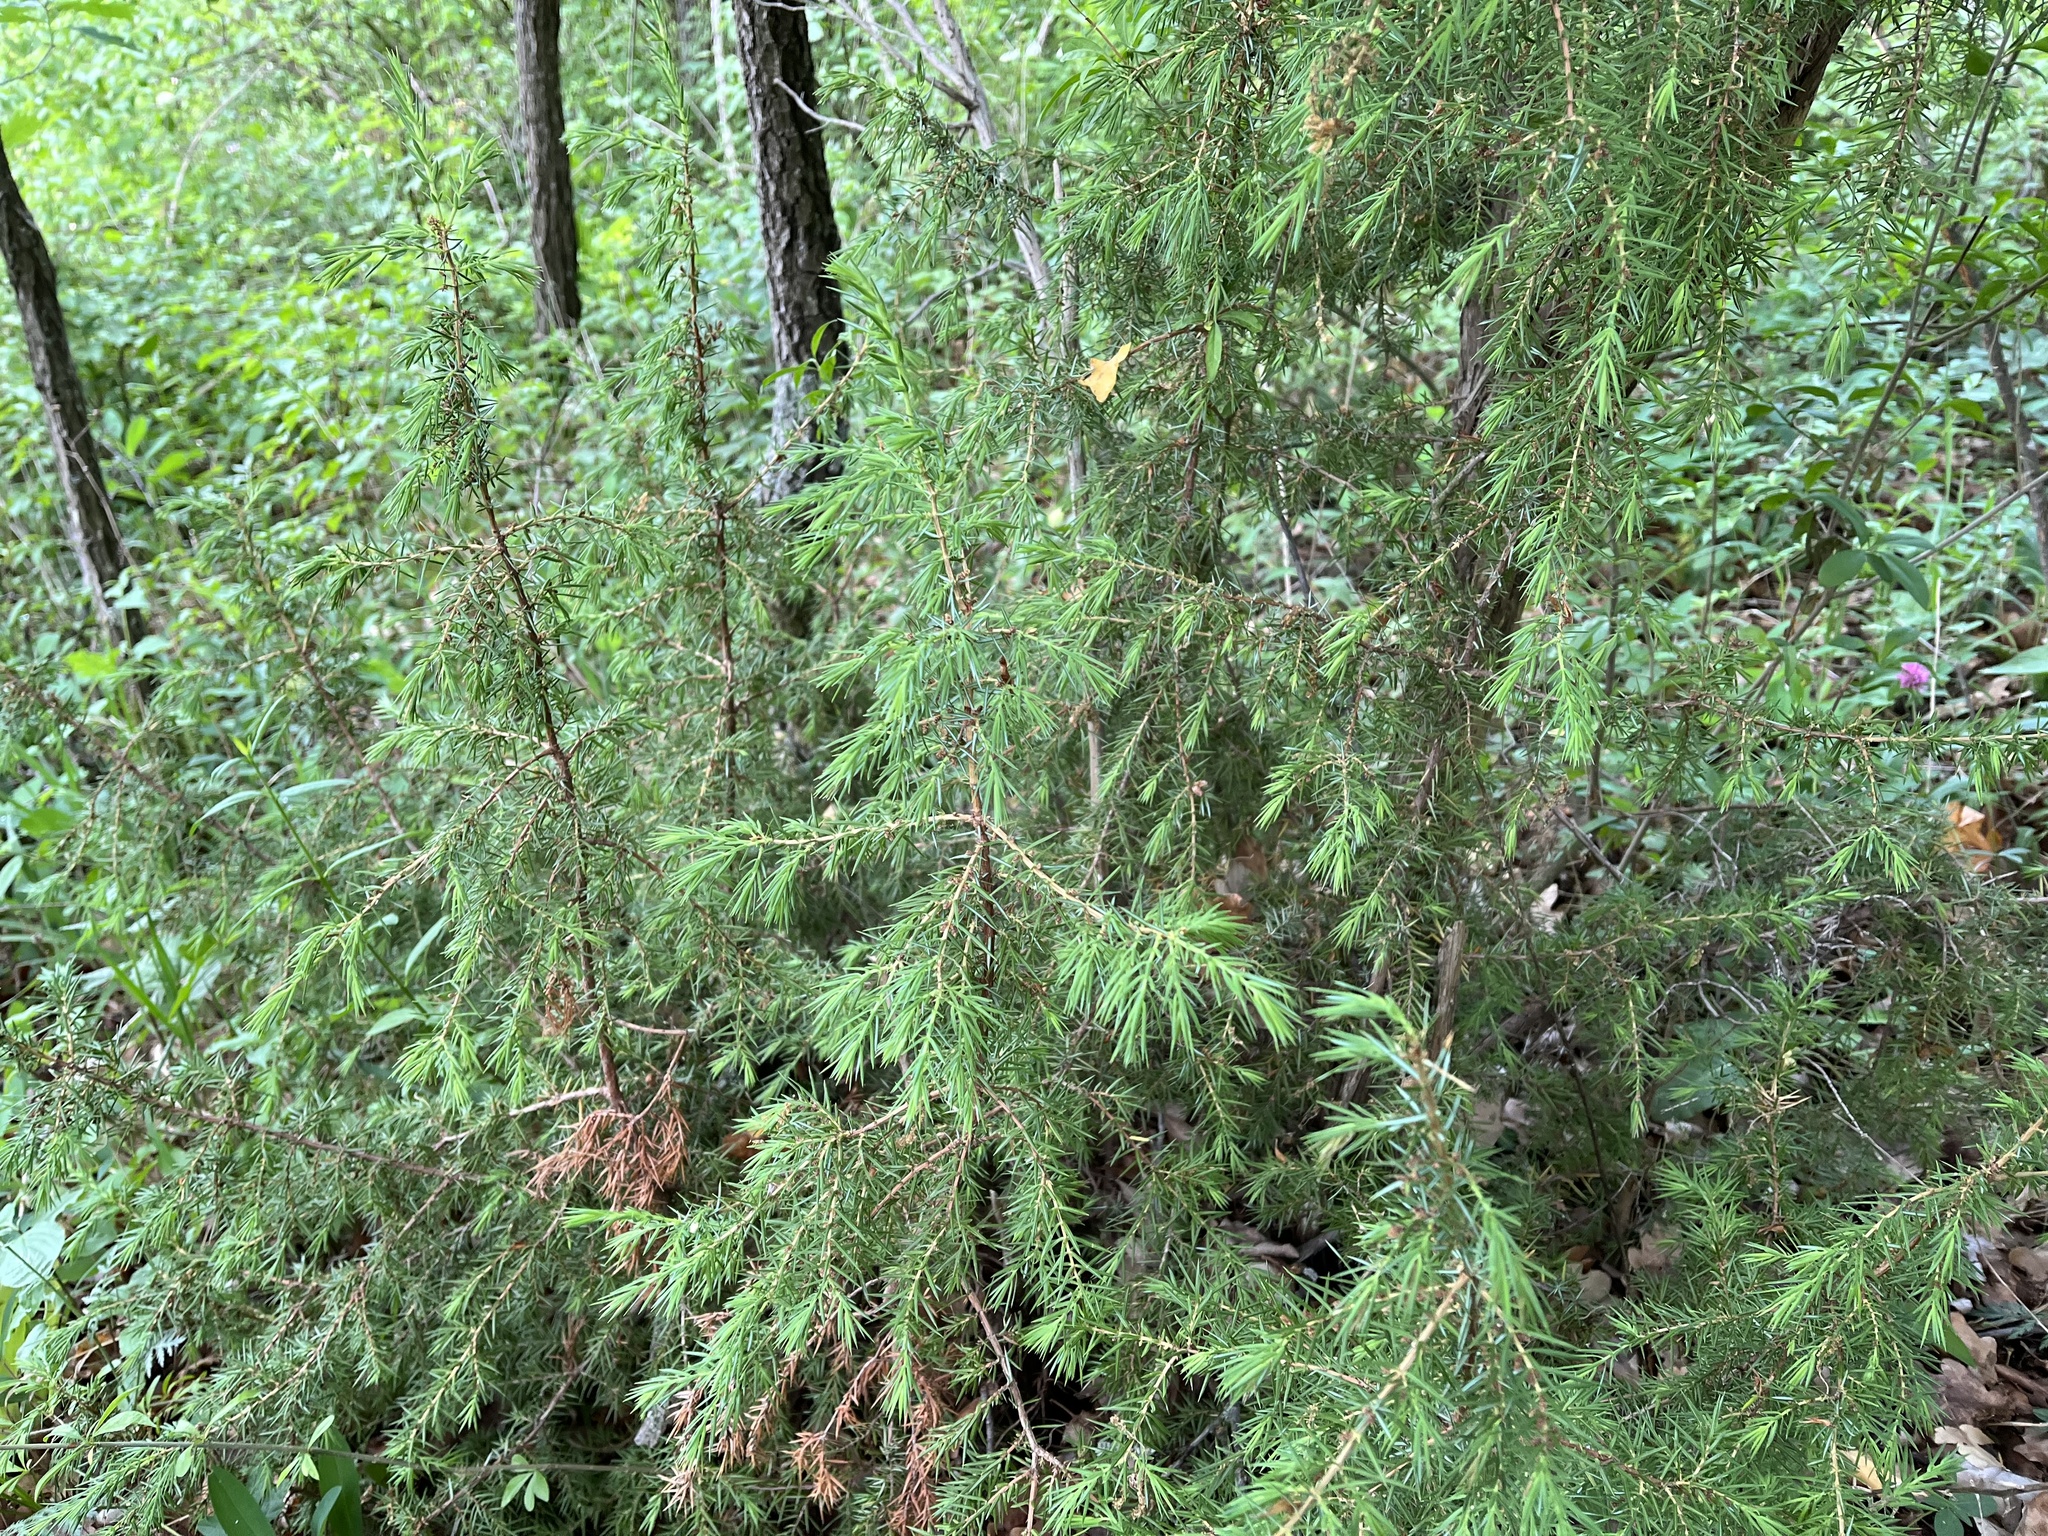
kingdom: Plantae
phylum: Tracheophyta
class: Pinopsida
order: Pinales
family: Cupressaceae
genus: Juniperus
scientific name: Juniperus communis
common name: Common juniper
